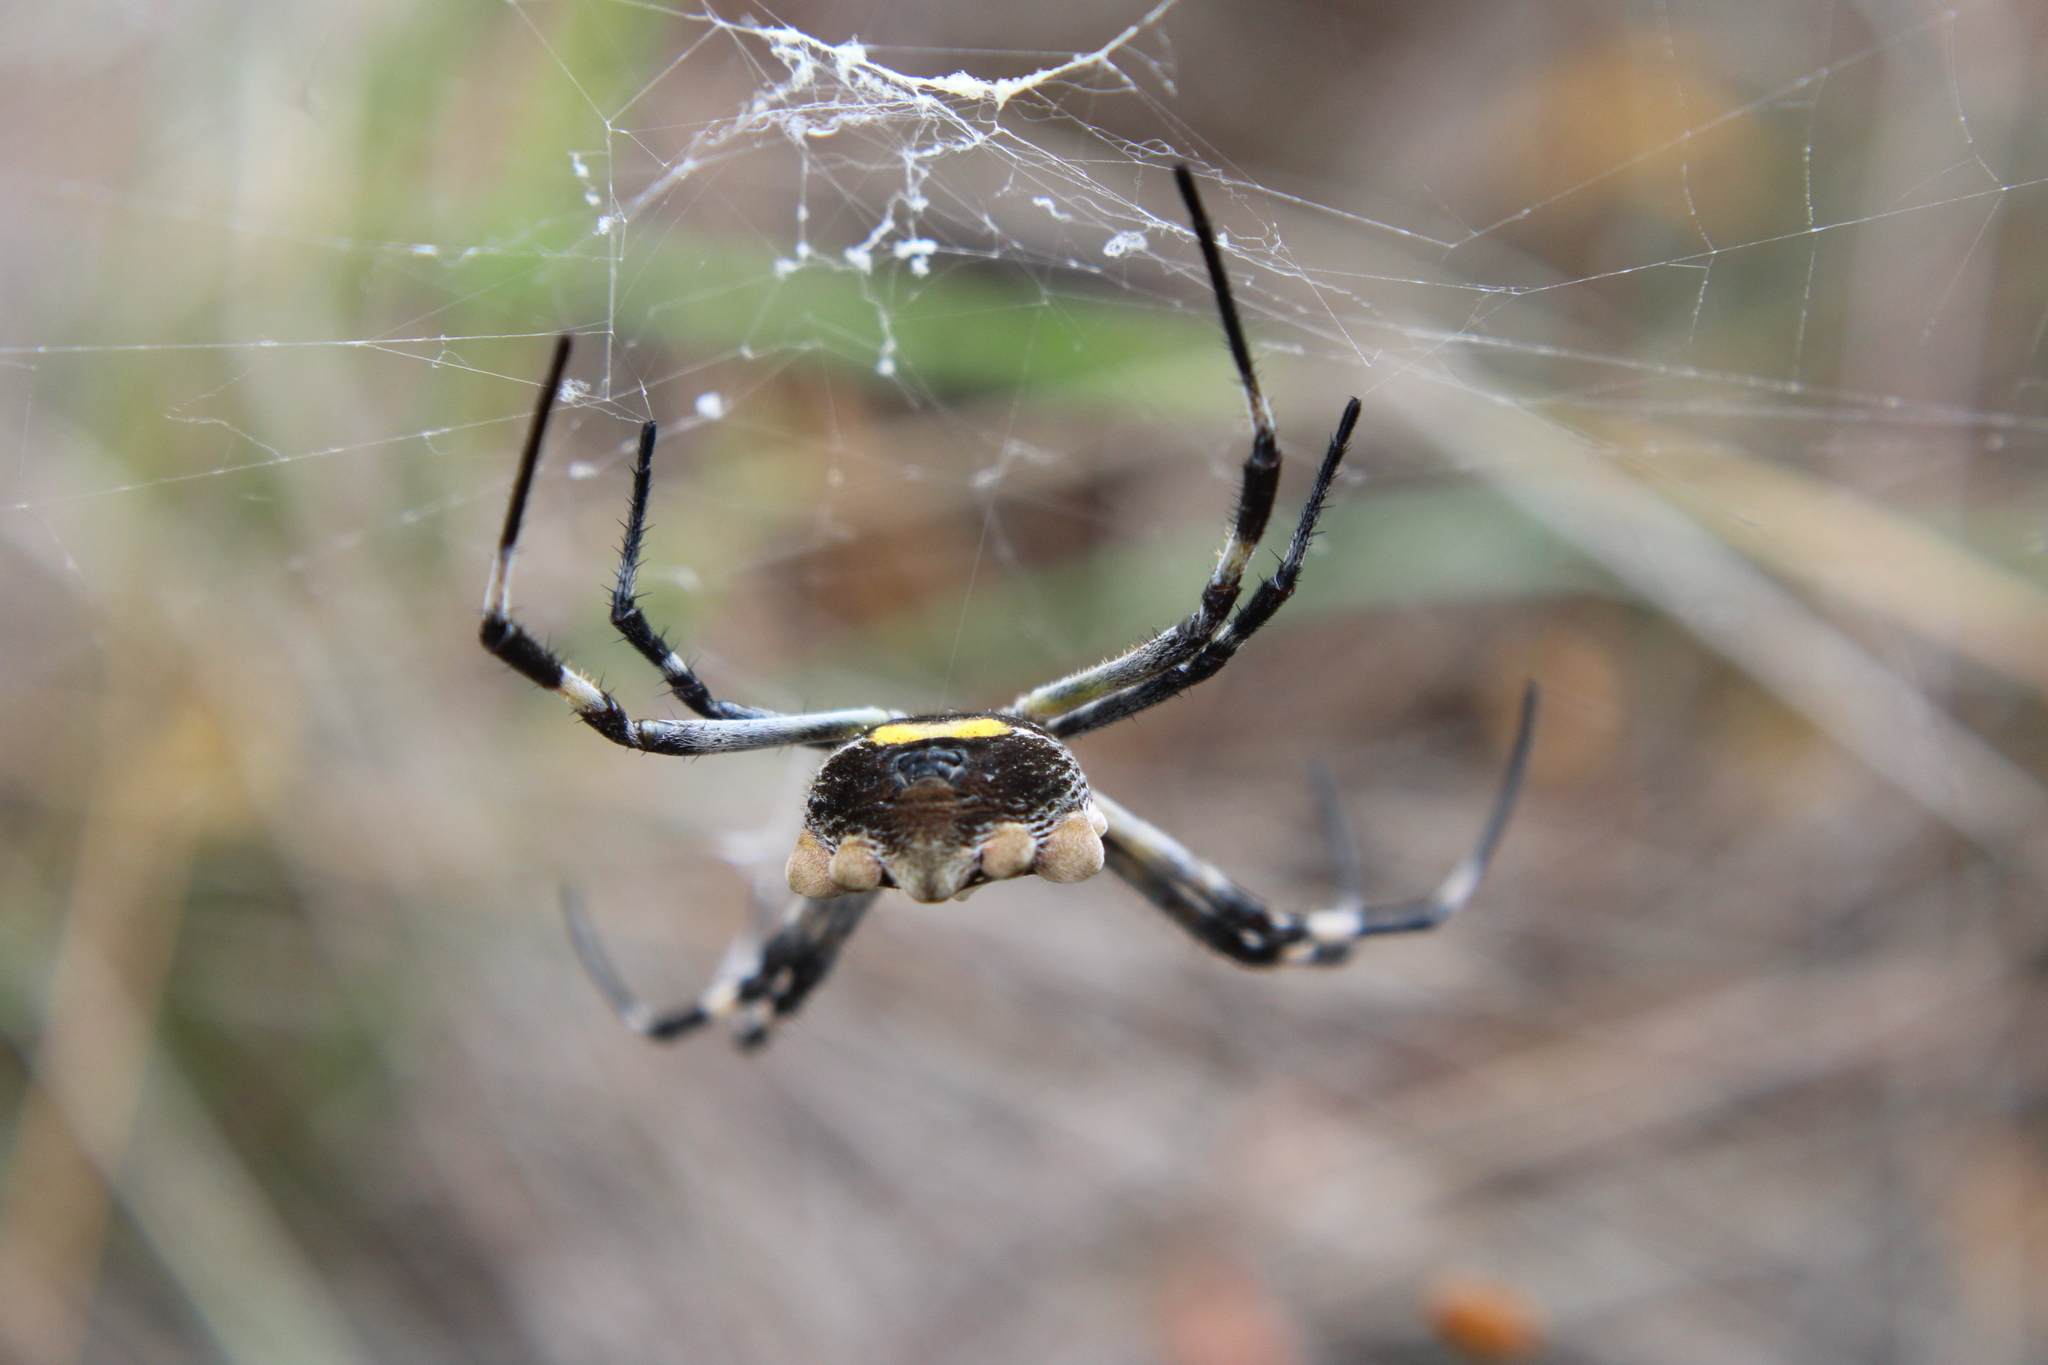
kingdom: Animalia
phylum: Arthropoda
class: Arachnida
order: Araneae
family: Araneidae
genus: Argiope
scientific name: Argiope argentata
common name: Orb weavers
